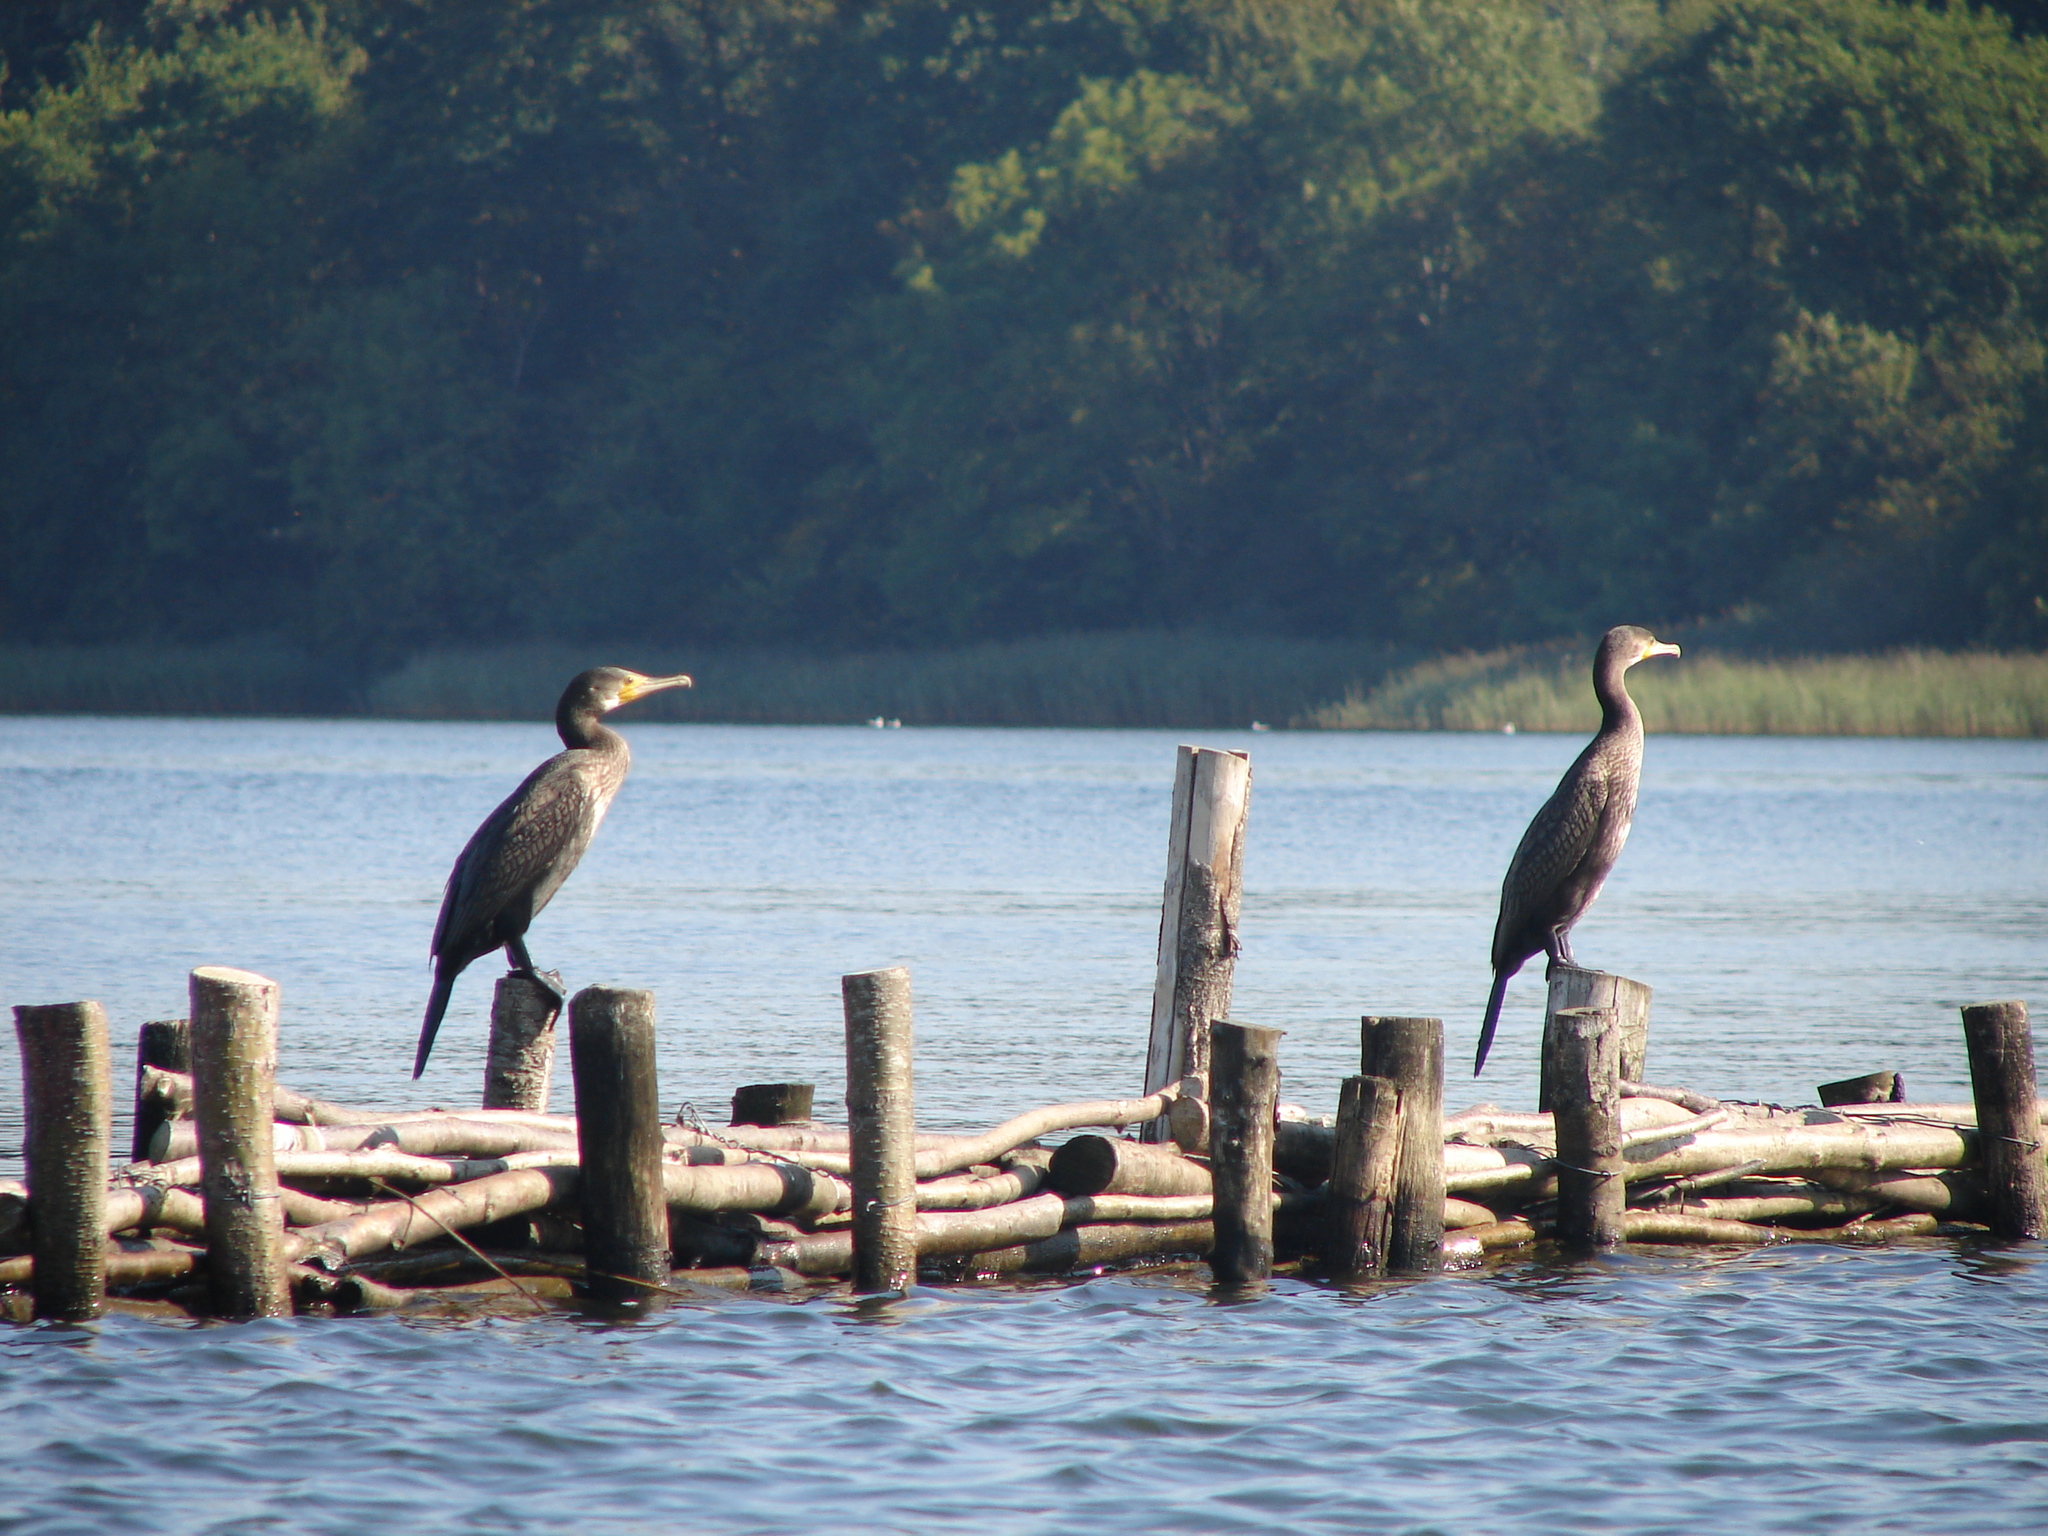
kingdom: Animalia
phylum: Chordata
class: Aves
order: Suliformes
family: Phalacrocoracidae
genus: Phalacrocorax
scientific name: Phalacrocorax carbo
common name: Great cormorant
